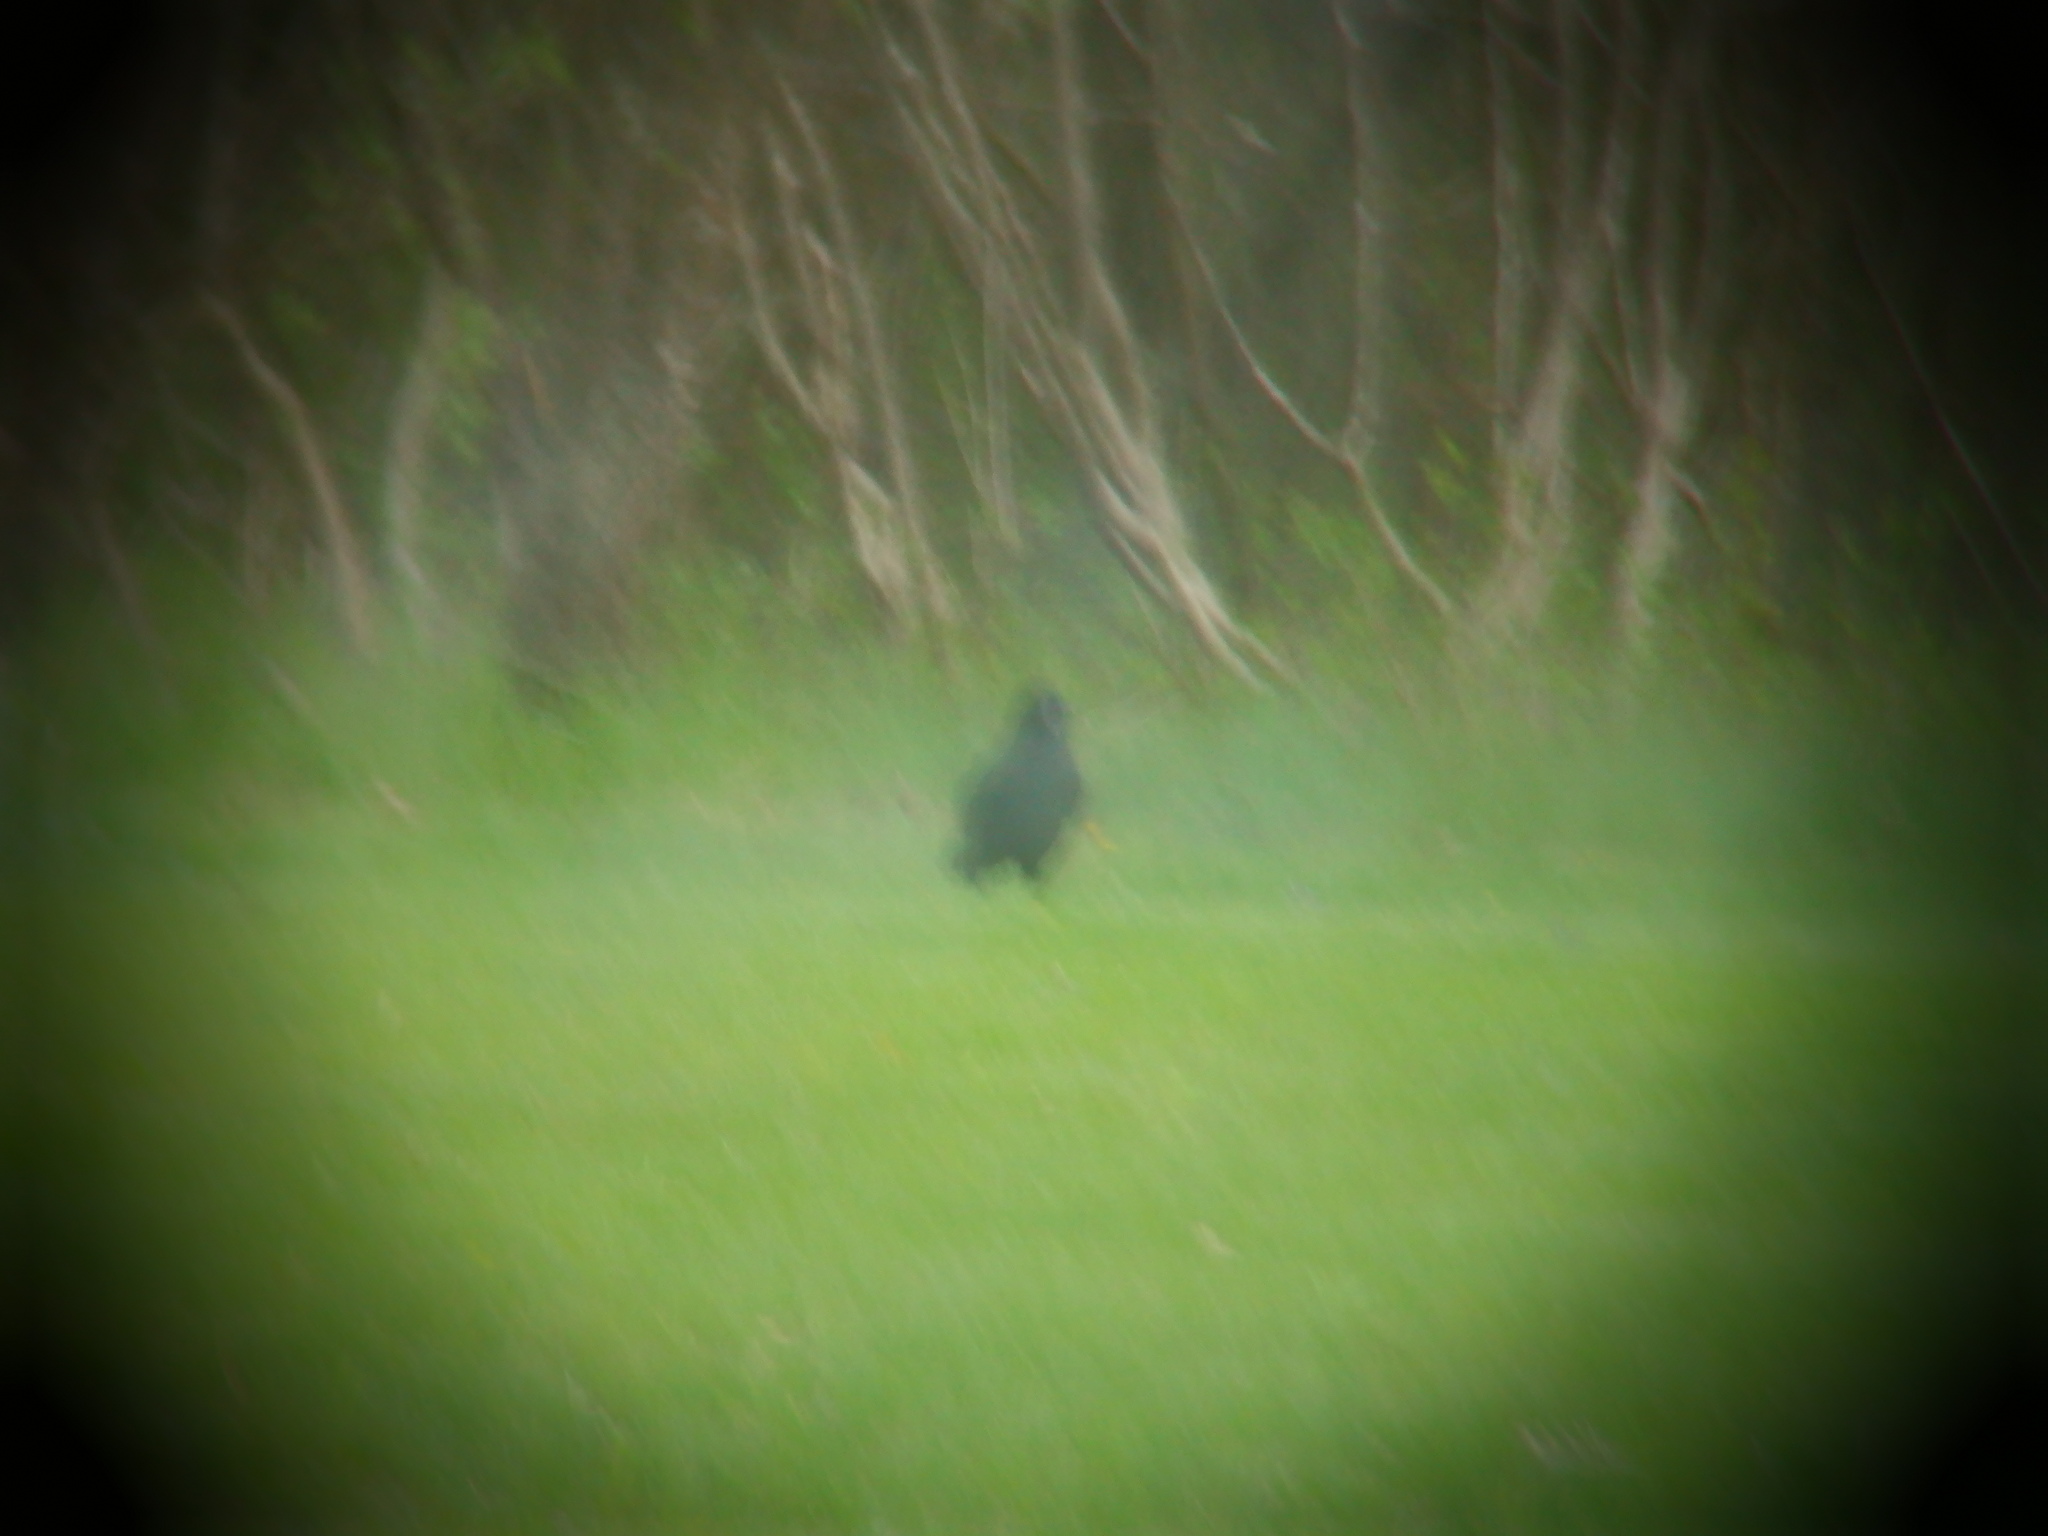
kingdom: Animalia
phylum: Chordata
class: Aves
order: Passeriformes
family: Corvidae
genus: Corvus
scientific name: Corvus brachyrhynchos
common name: American crow
